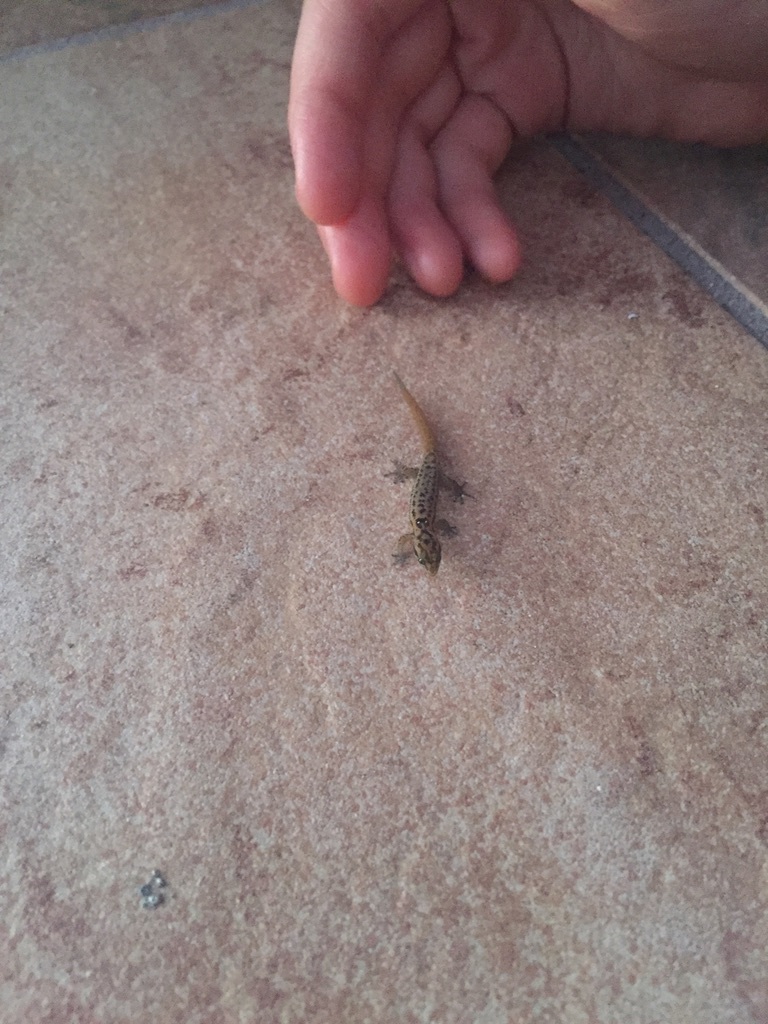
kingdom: Animalia
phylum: Chordata
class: Squamata
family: Sphaerodactylidae
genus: Sphaerodactylus
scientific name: Sphaerodactylus macrolepis
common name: Big-scaled least gecko
